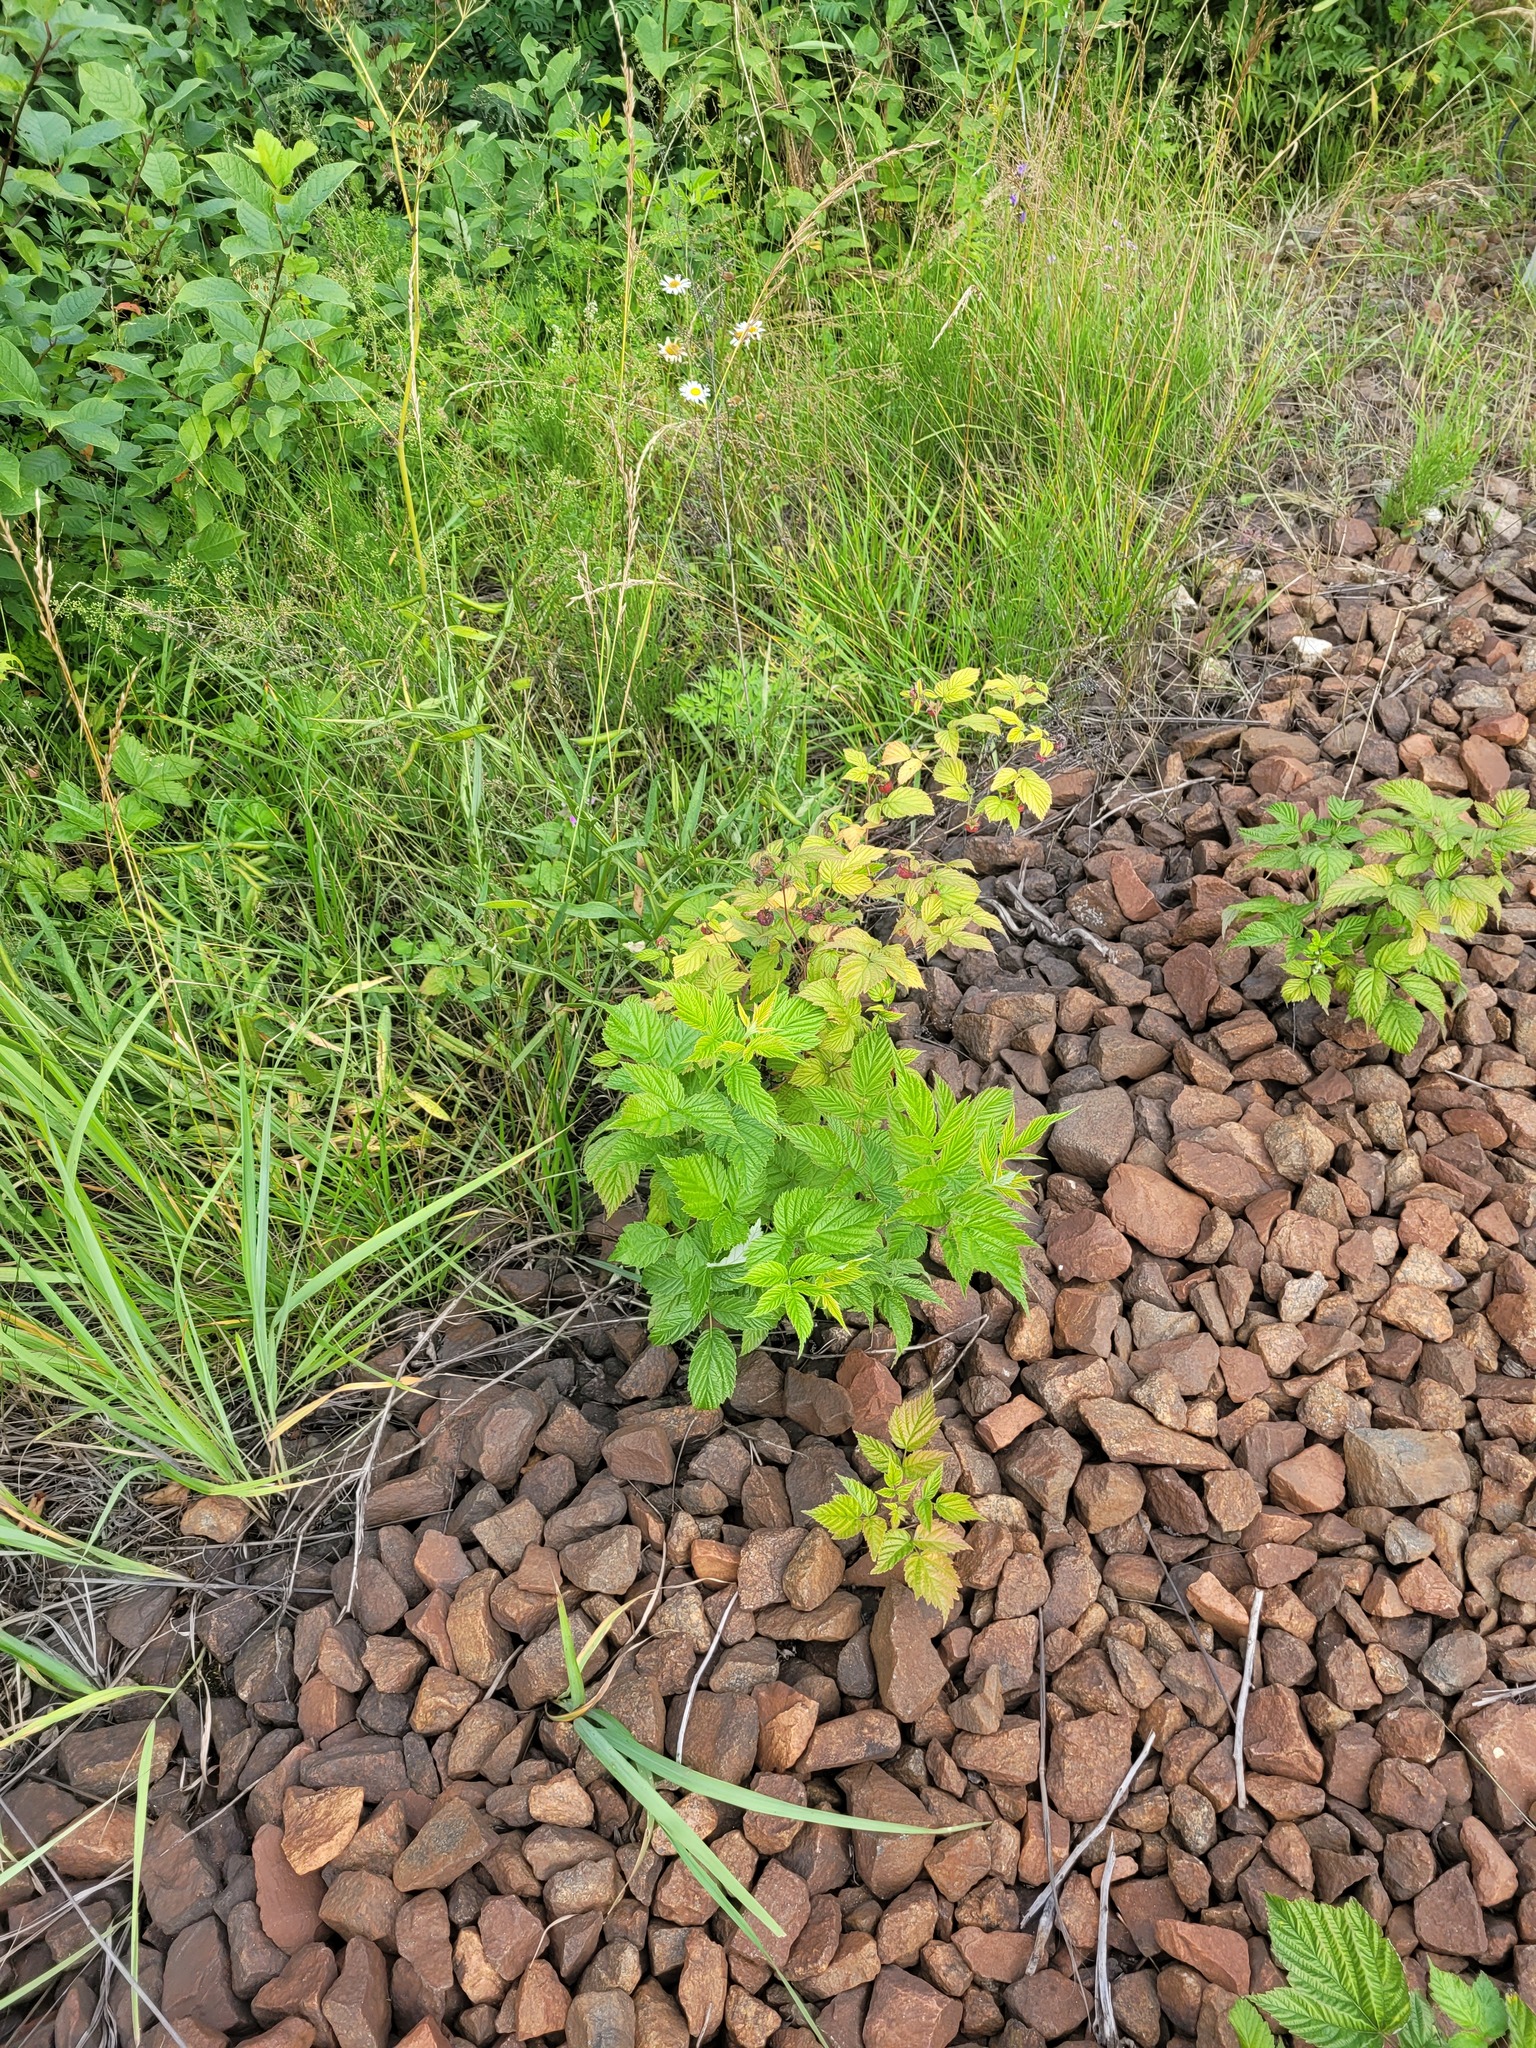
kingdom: Plantae
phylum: Tracheophyta
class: Magnoliopsida
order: Rosales
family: Rosaceae
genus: Rubus
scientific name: Rubus idaeus
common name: Raspberry
